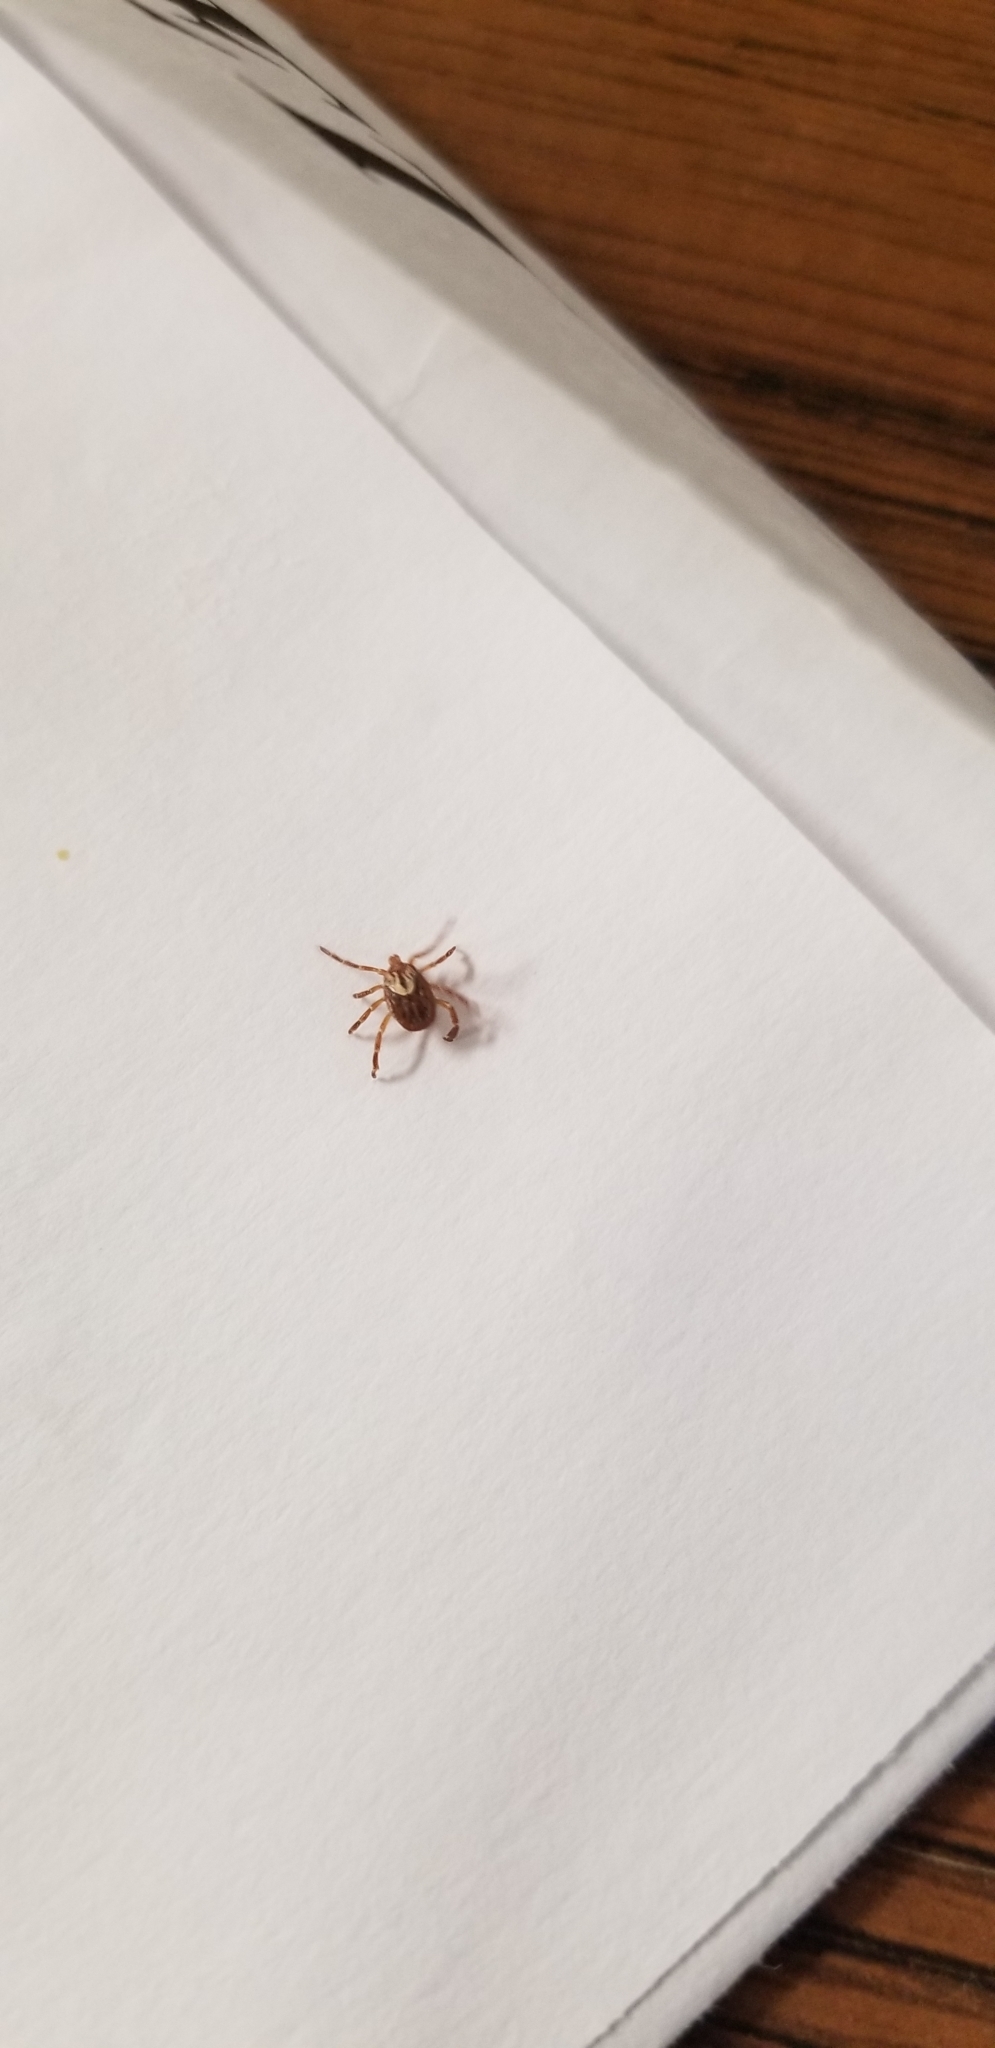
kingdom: Animalia
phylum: Arthropoda
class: Arachnida
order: Ixodida
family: Ixodidae
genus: Amblyomma
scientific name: Amblyomma maculatum
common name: Gulf coast tick
